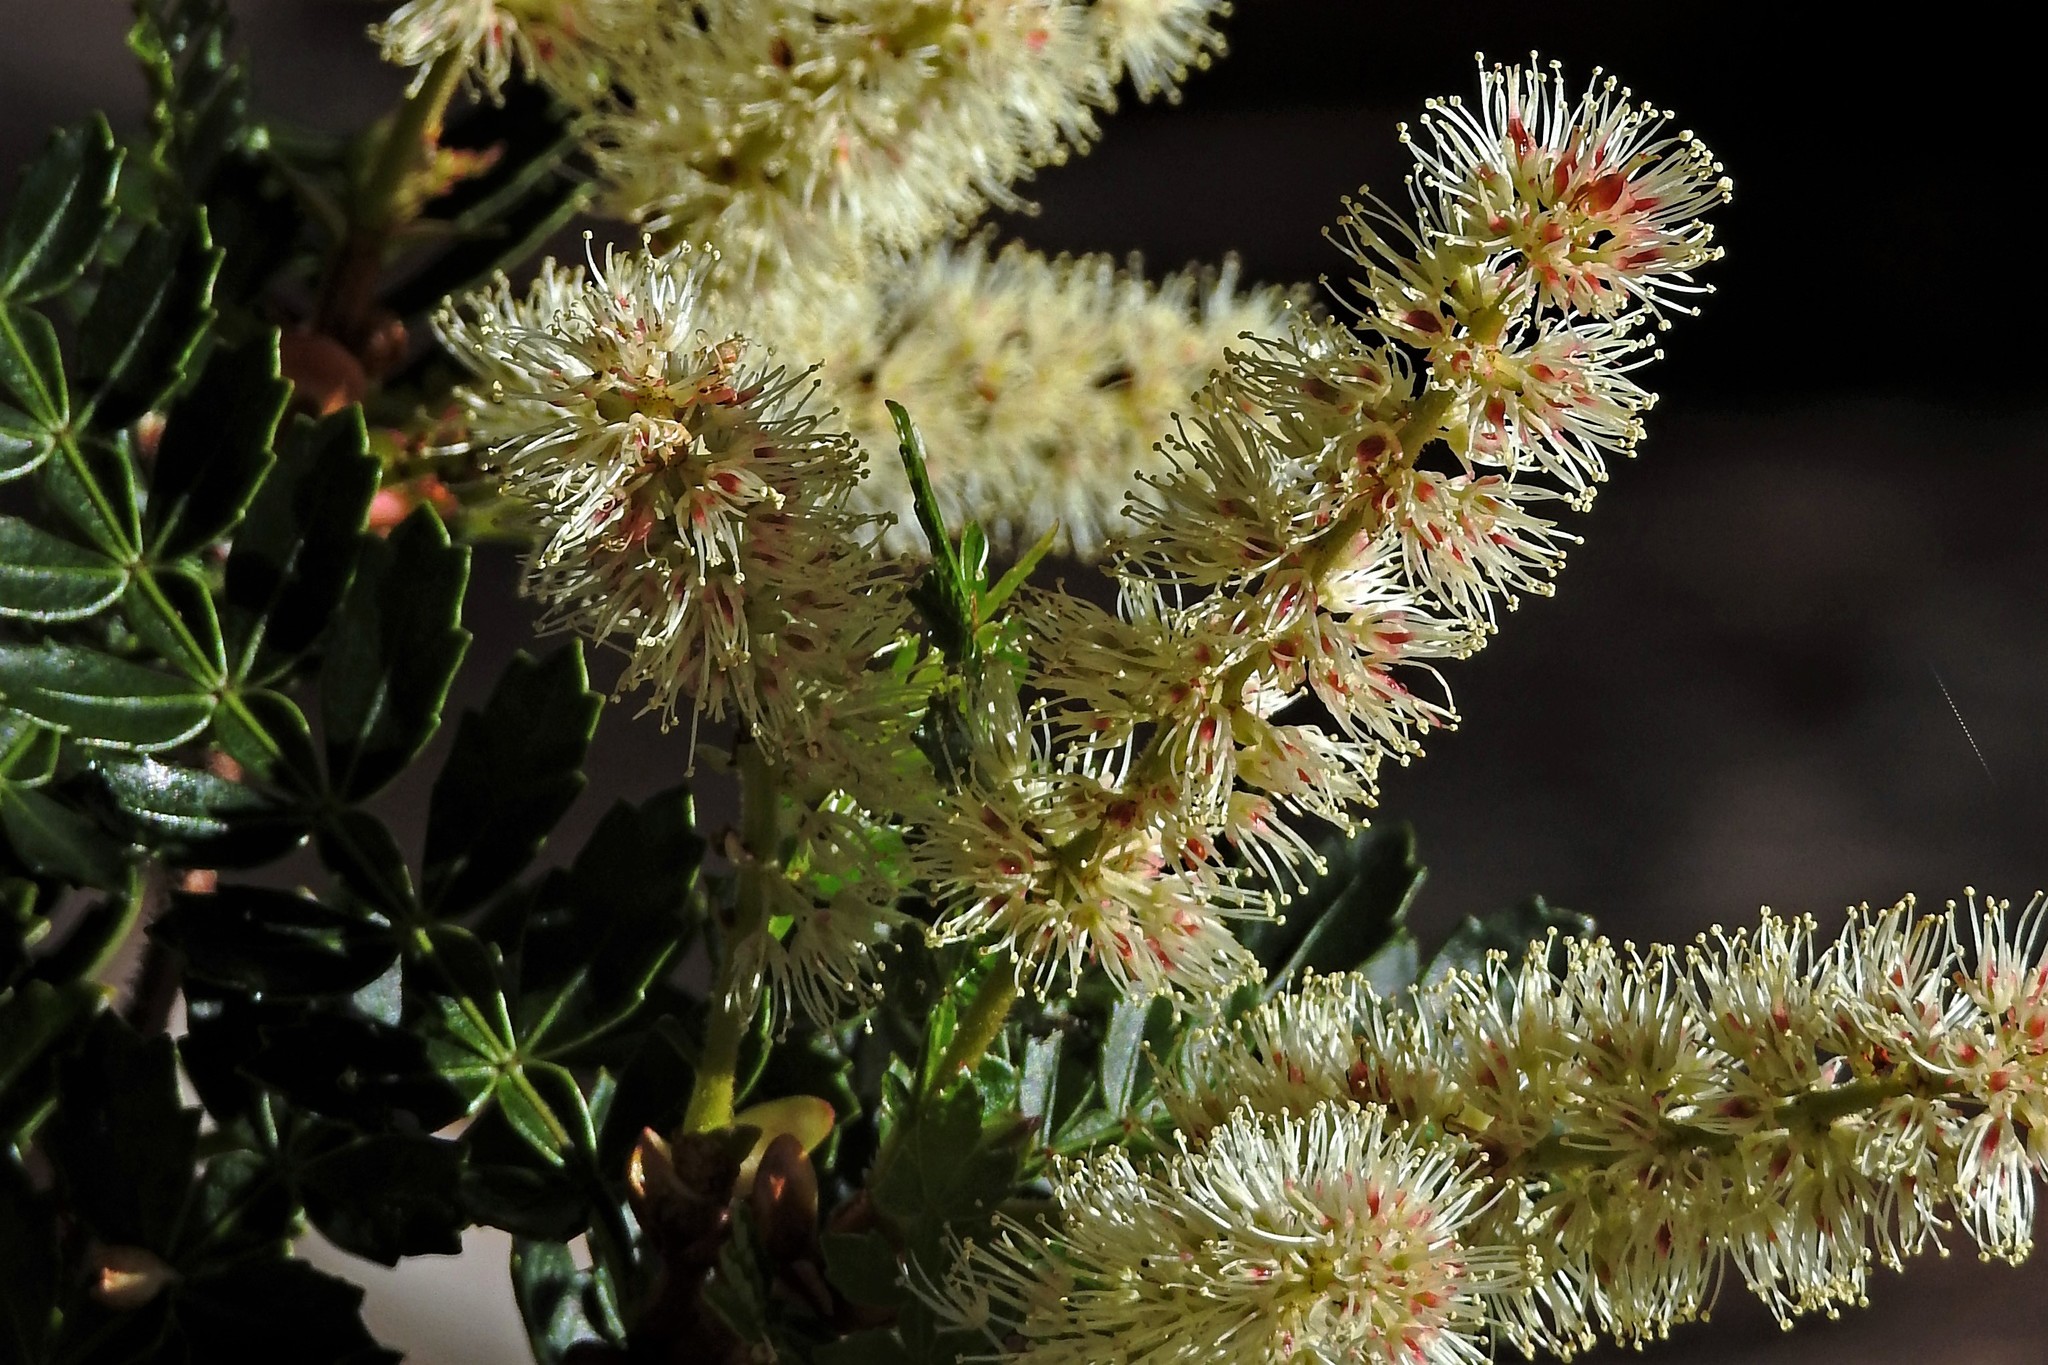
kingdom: Plantae
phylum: Tracheophyta
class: Magnoliopsida
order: Oxalidales
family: Cunoniaceae
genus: Weinmannia
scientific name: Weinmannia trichosperma
